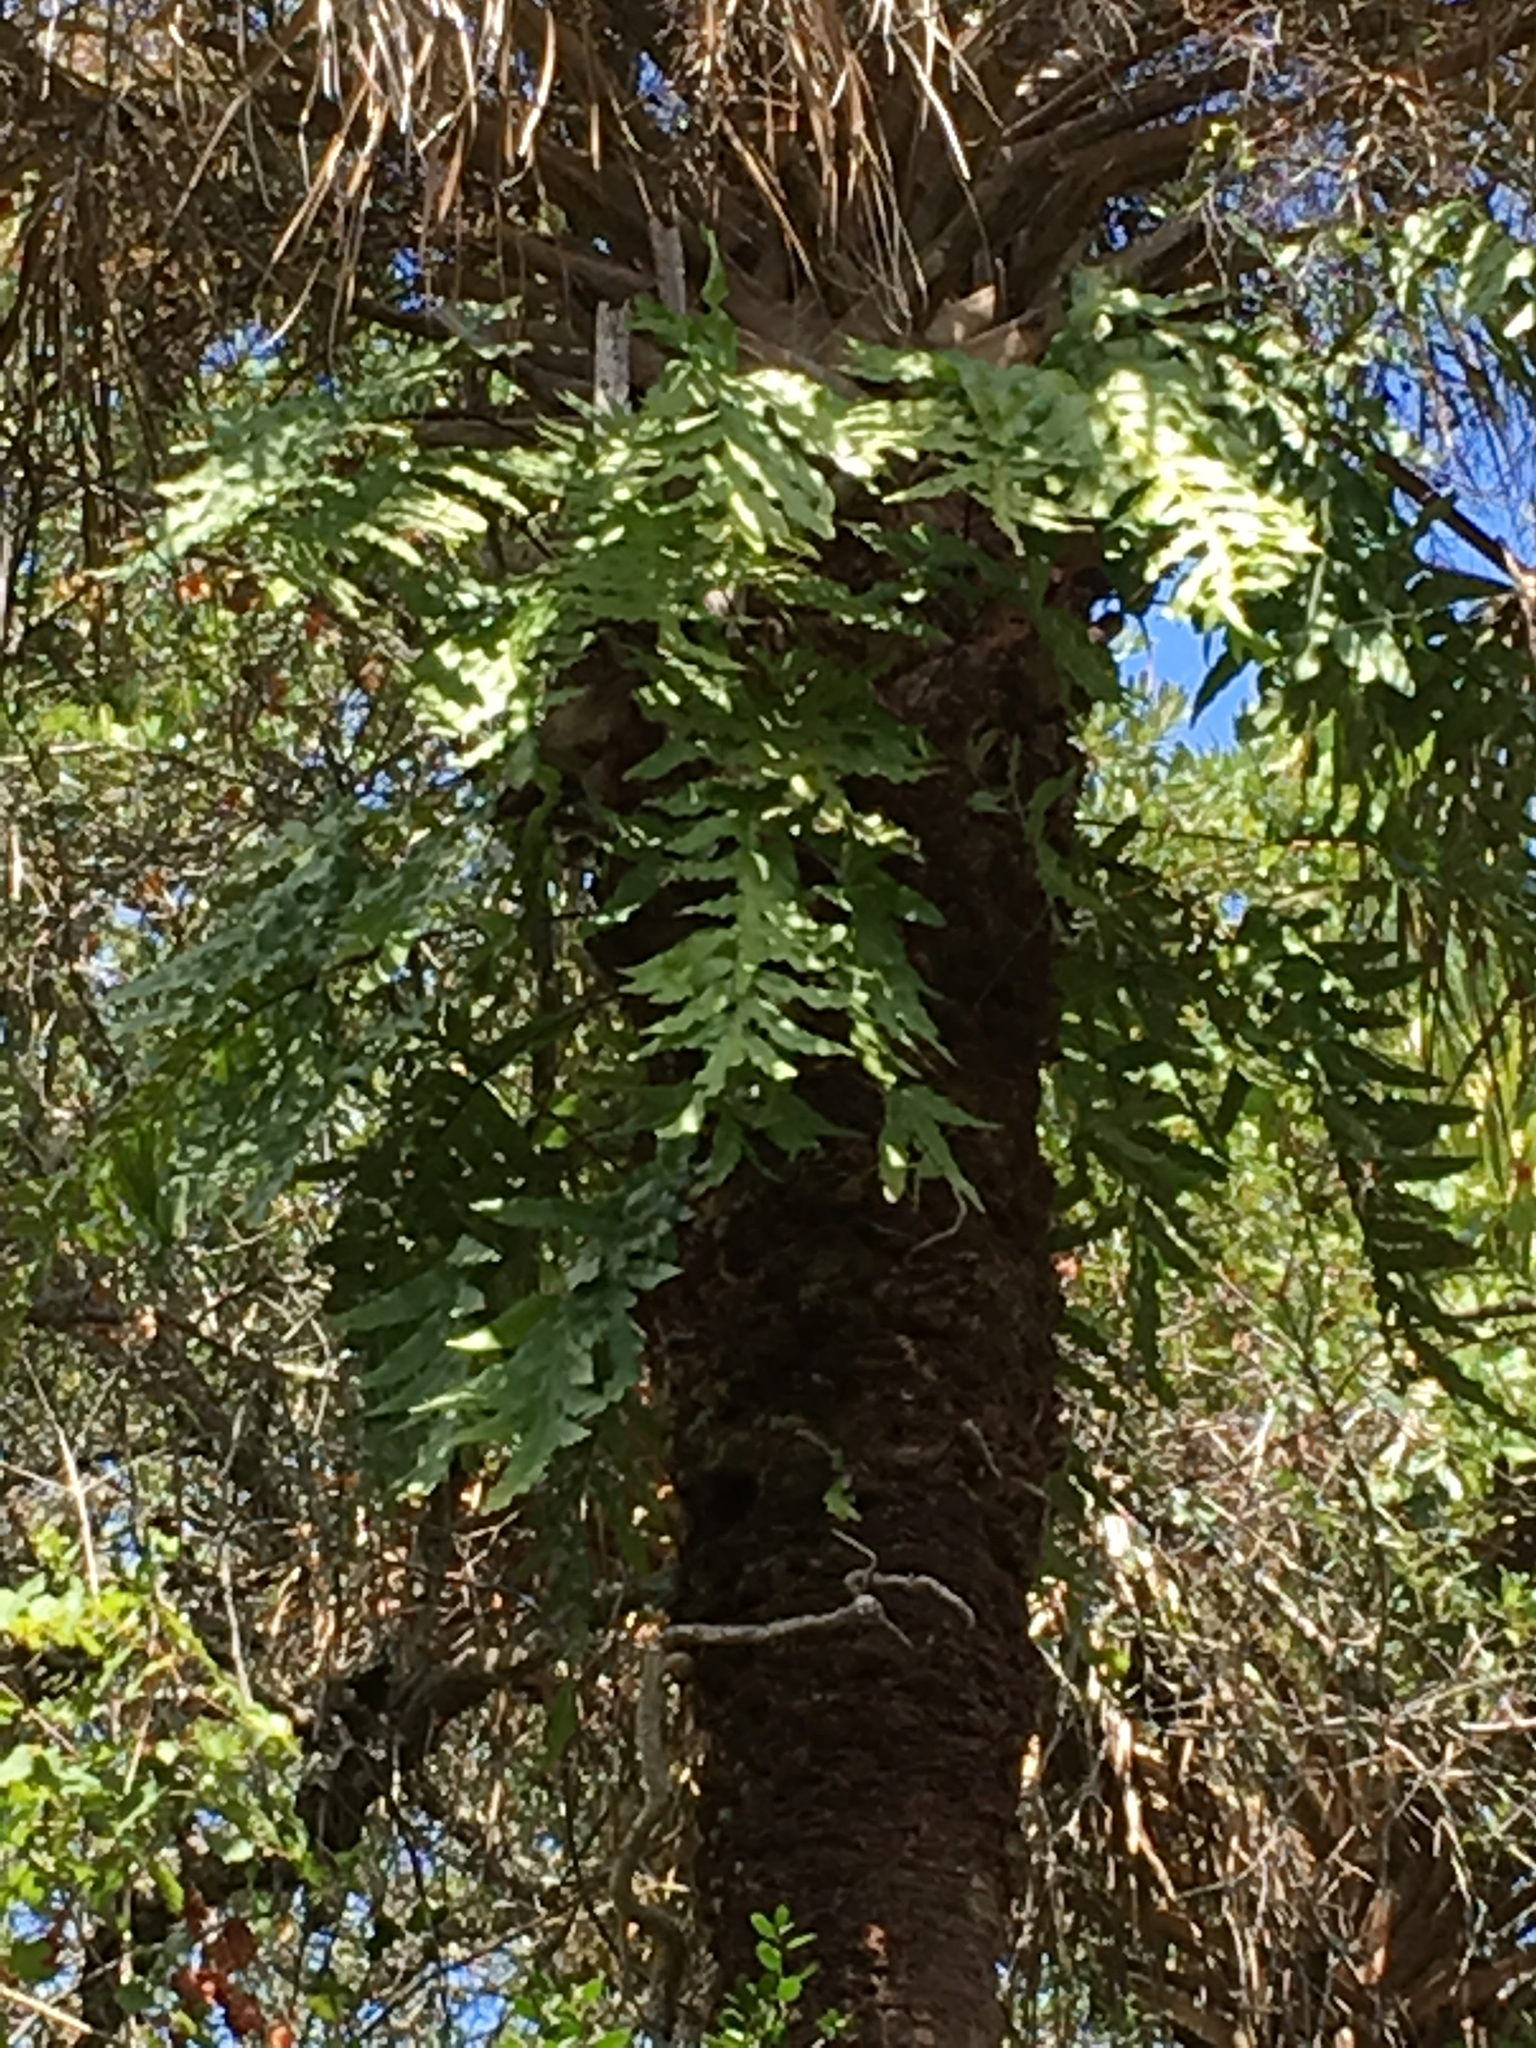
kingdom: Plantae
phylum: Tracheophyta
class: Polypodiopsida
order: Polypodiales
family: Polypodiaceae
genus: Phlebodium
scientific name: Phlebodium aureum
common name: Gold-foot fern
